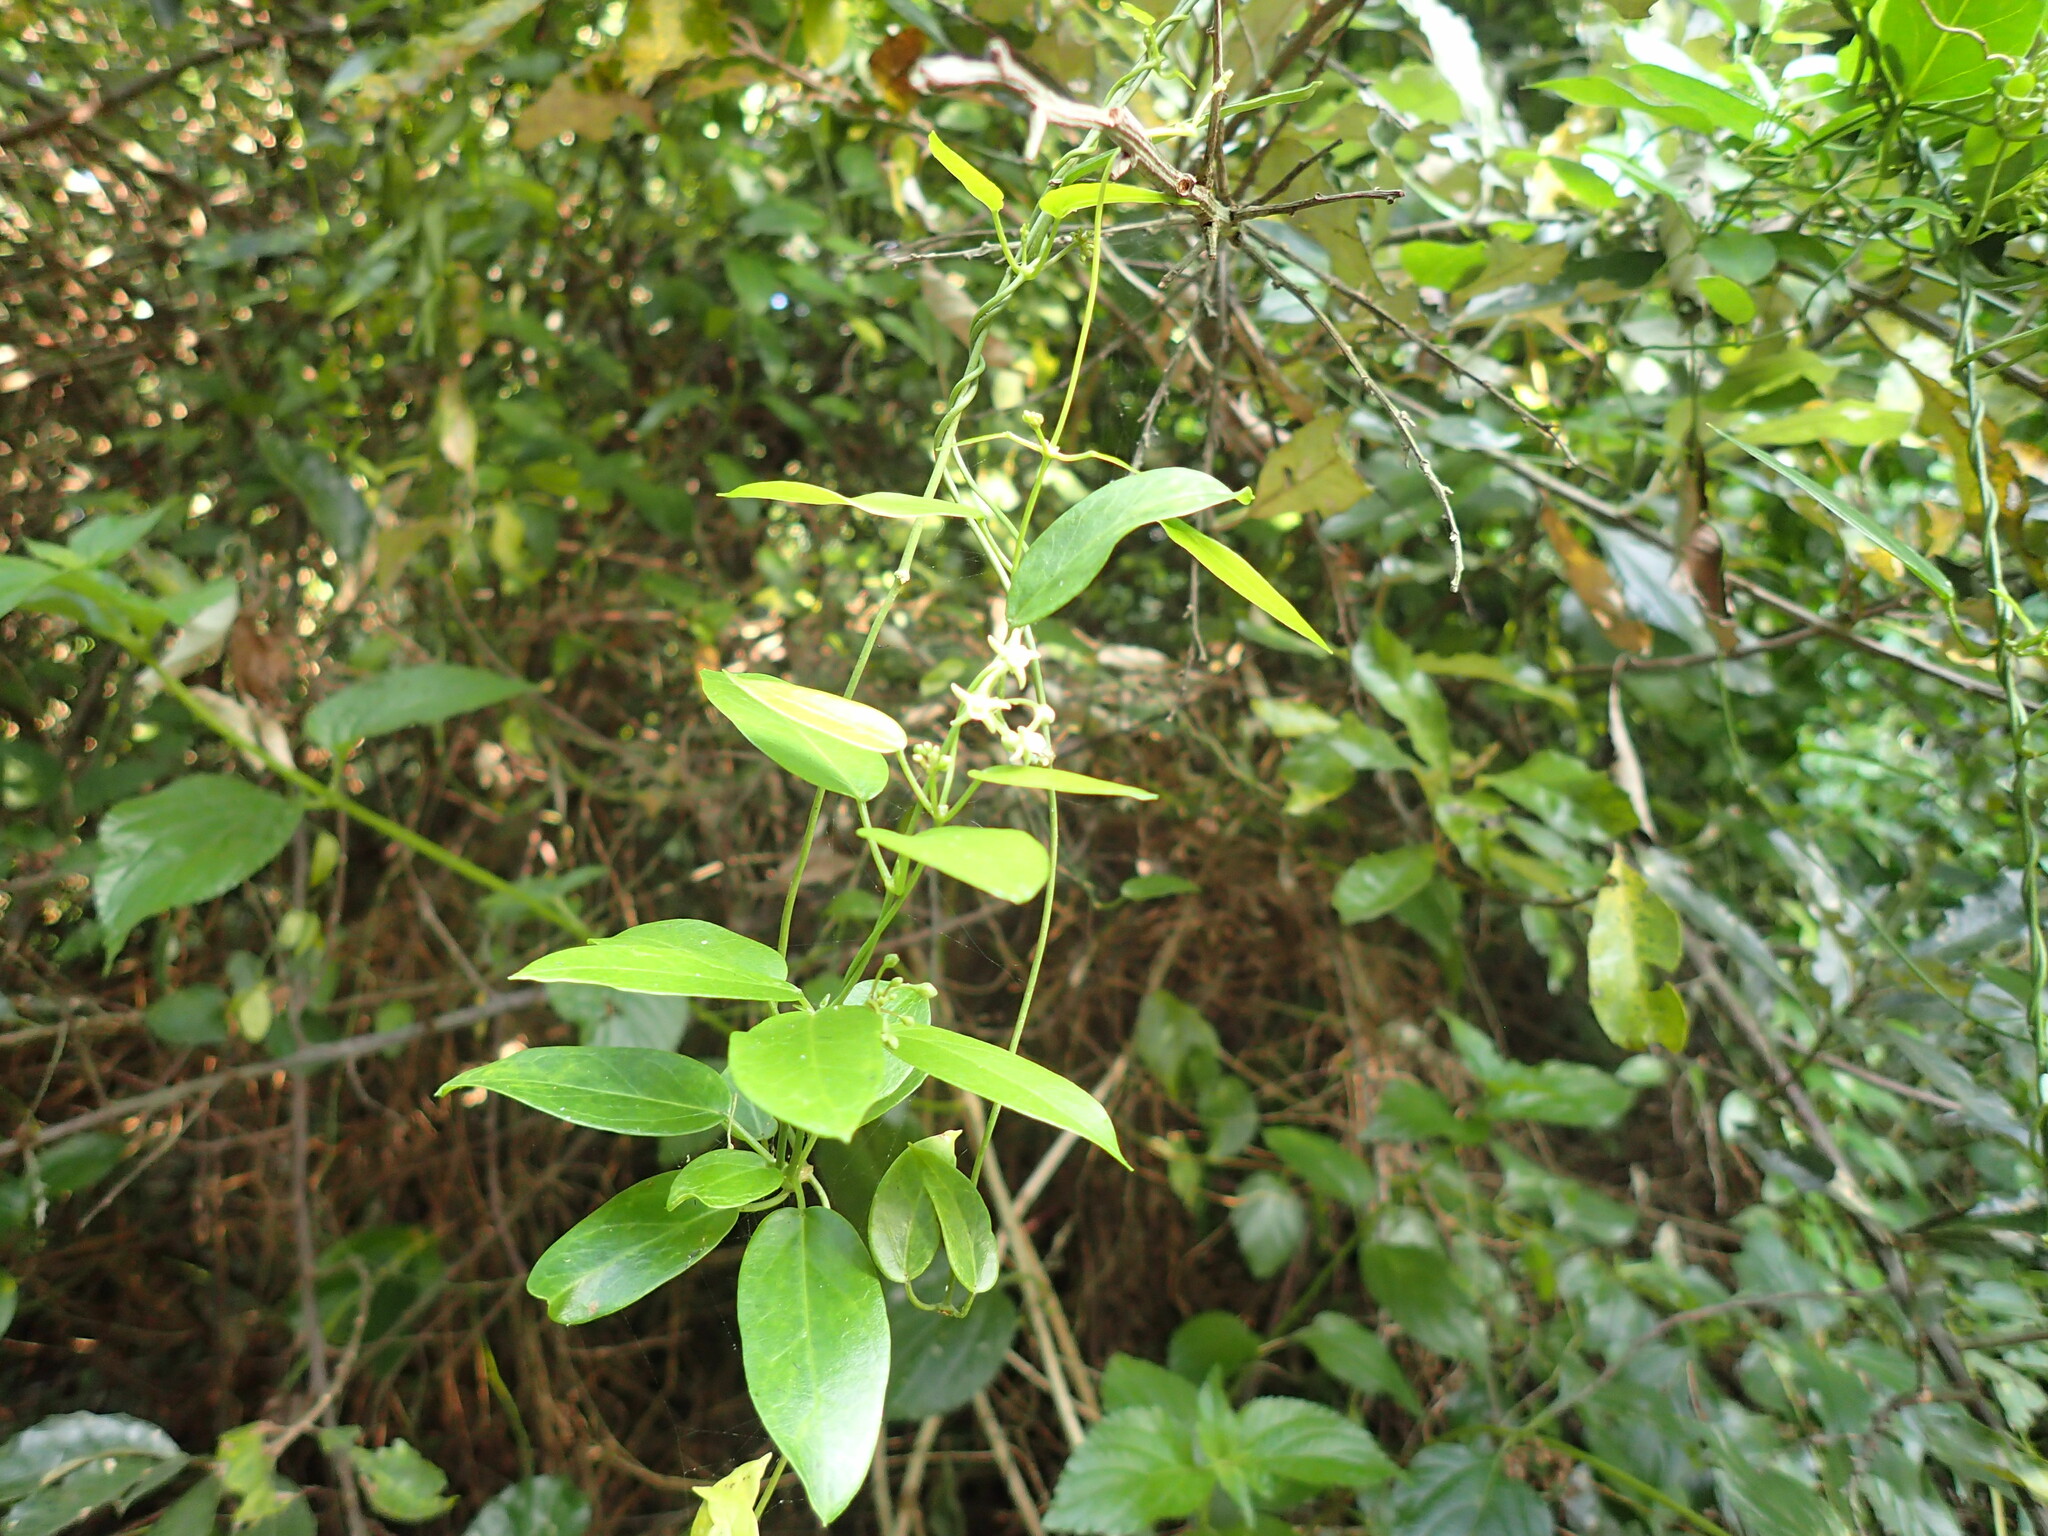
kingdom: Plantae
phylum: Tracheophyta
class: Magnoliopsida
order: Gentianales
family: Apocynaceae
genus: Cynanchum
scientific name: Cynanchum ellipticum
